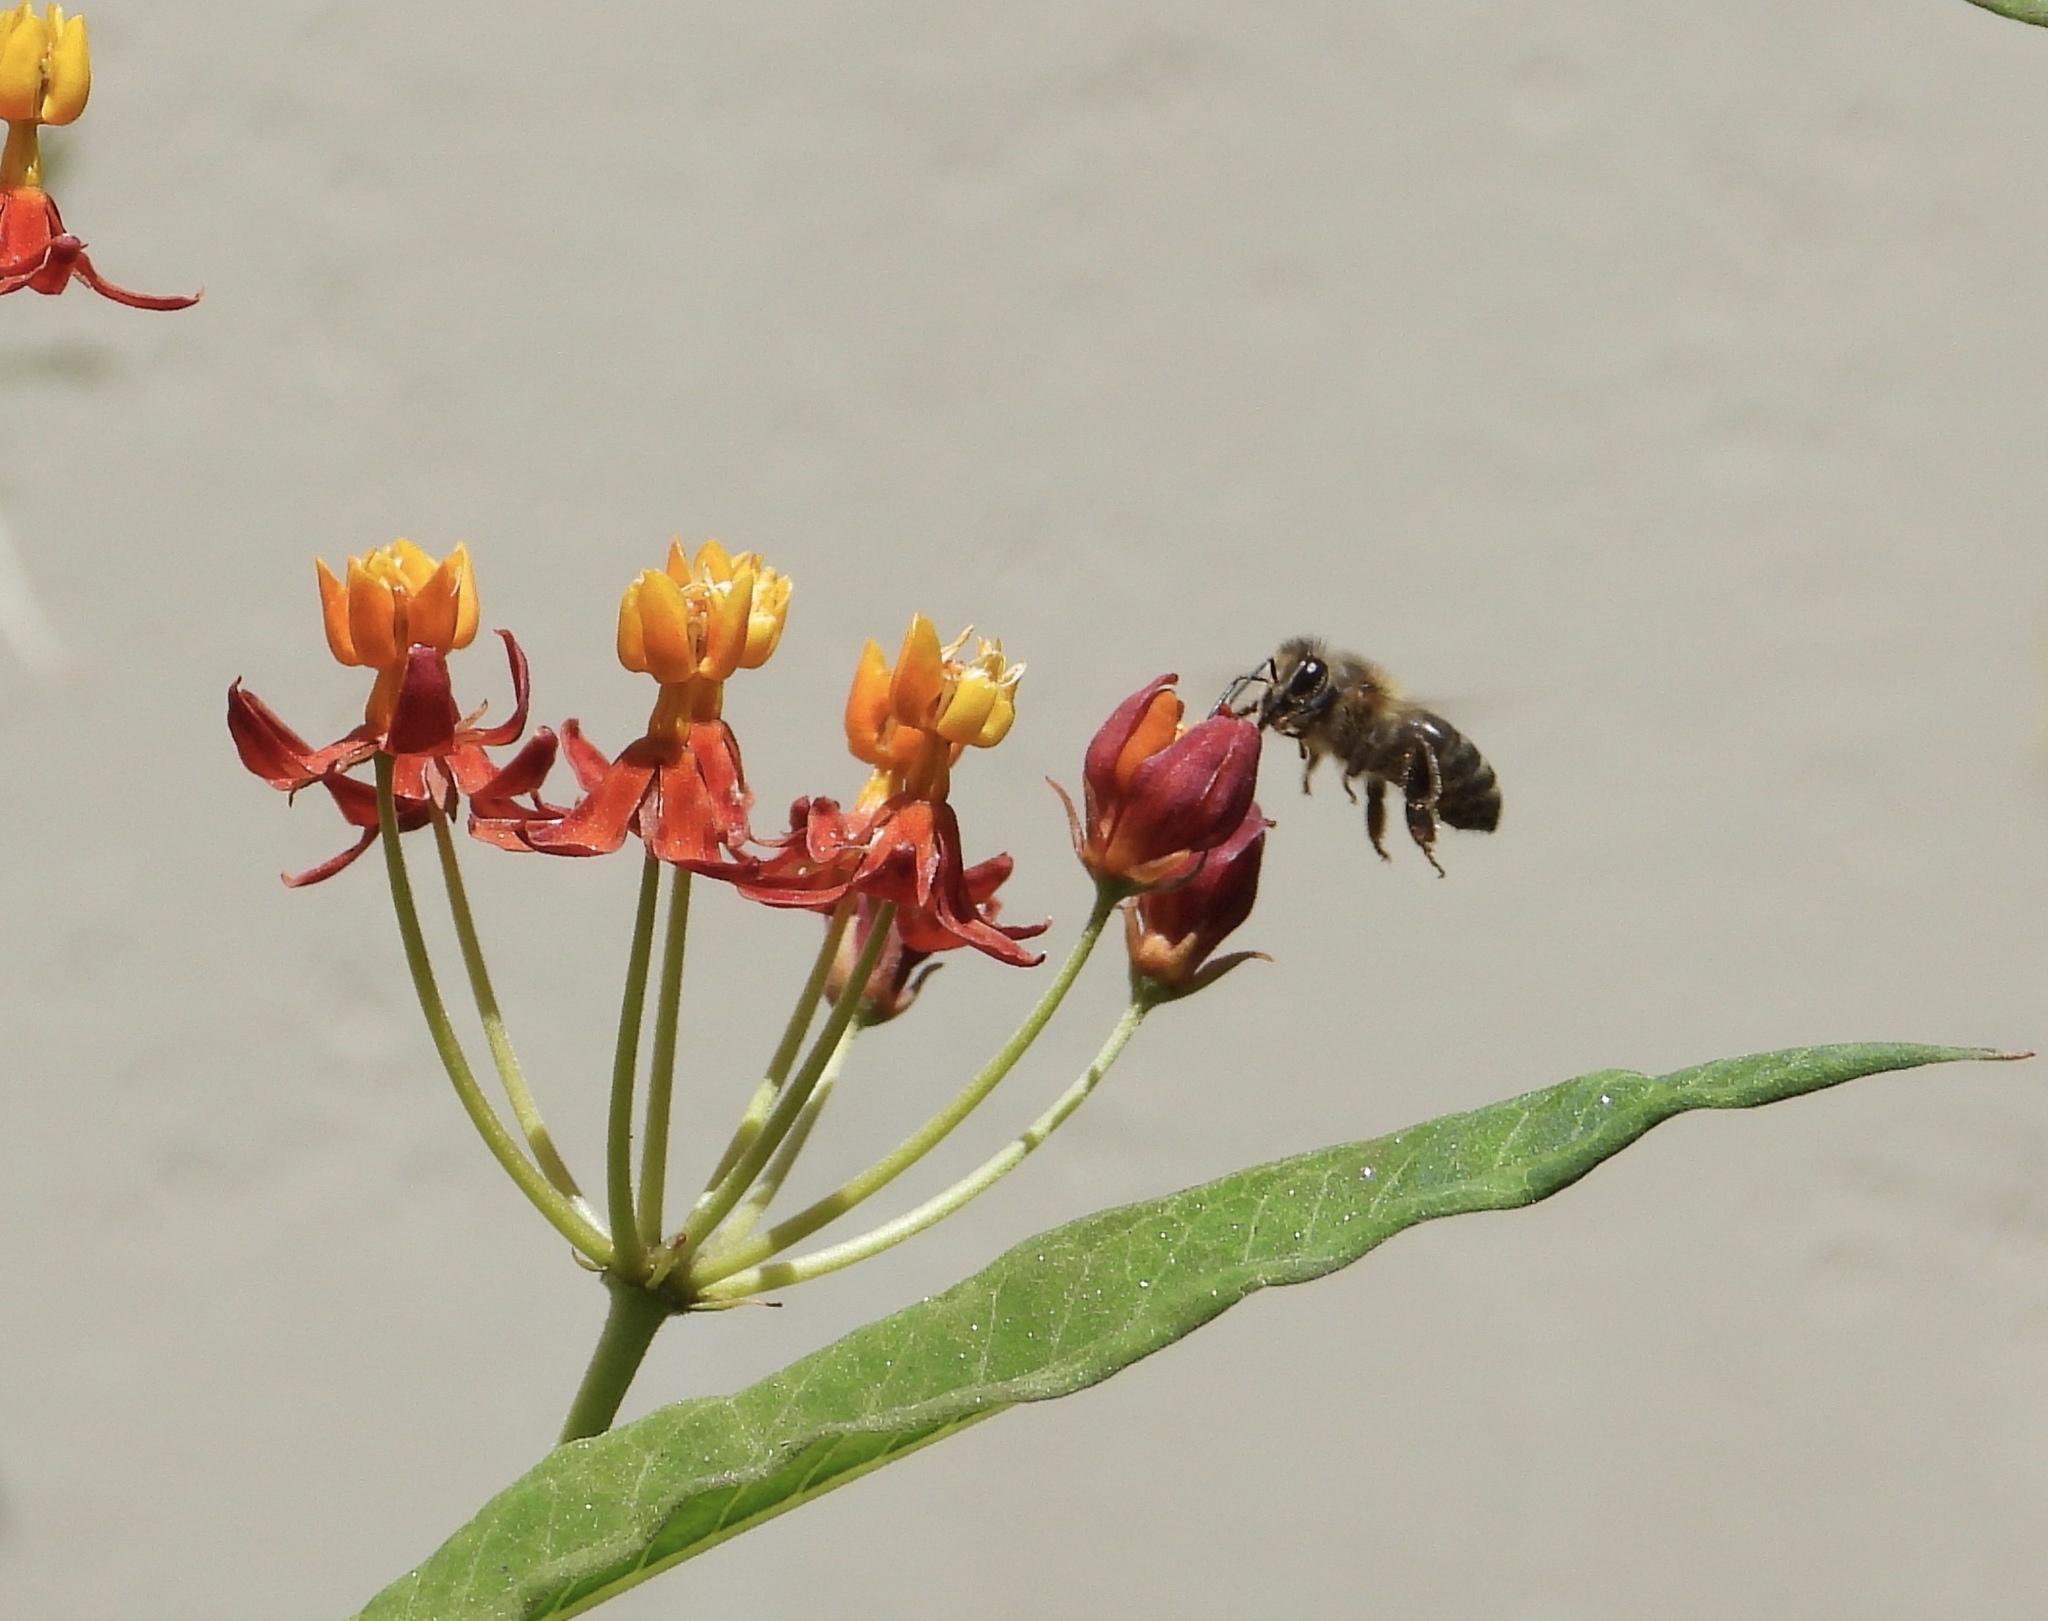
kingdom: Animalia
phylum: Arthropoda
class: Insecta
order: Hymenoptera
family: Apidae
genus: Apis
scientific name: Apis mellifera
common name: Honey bee
